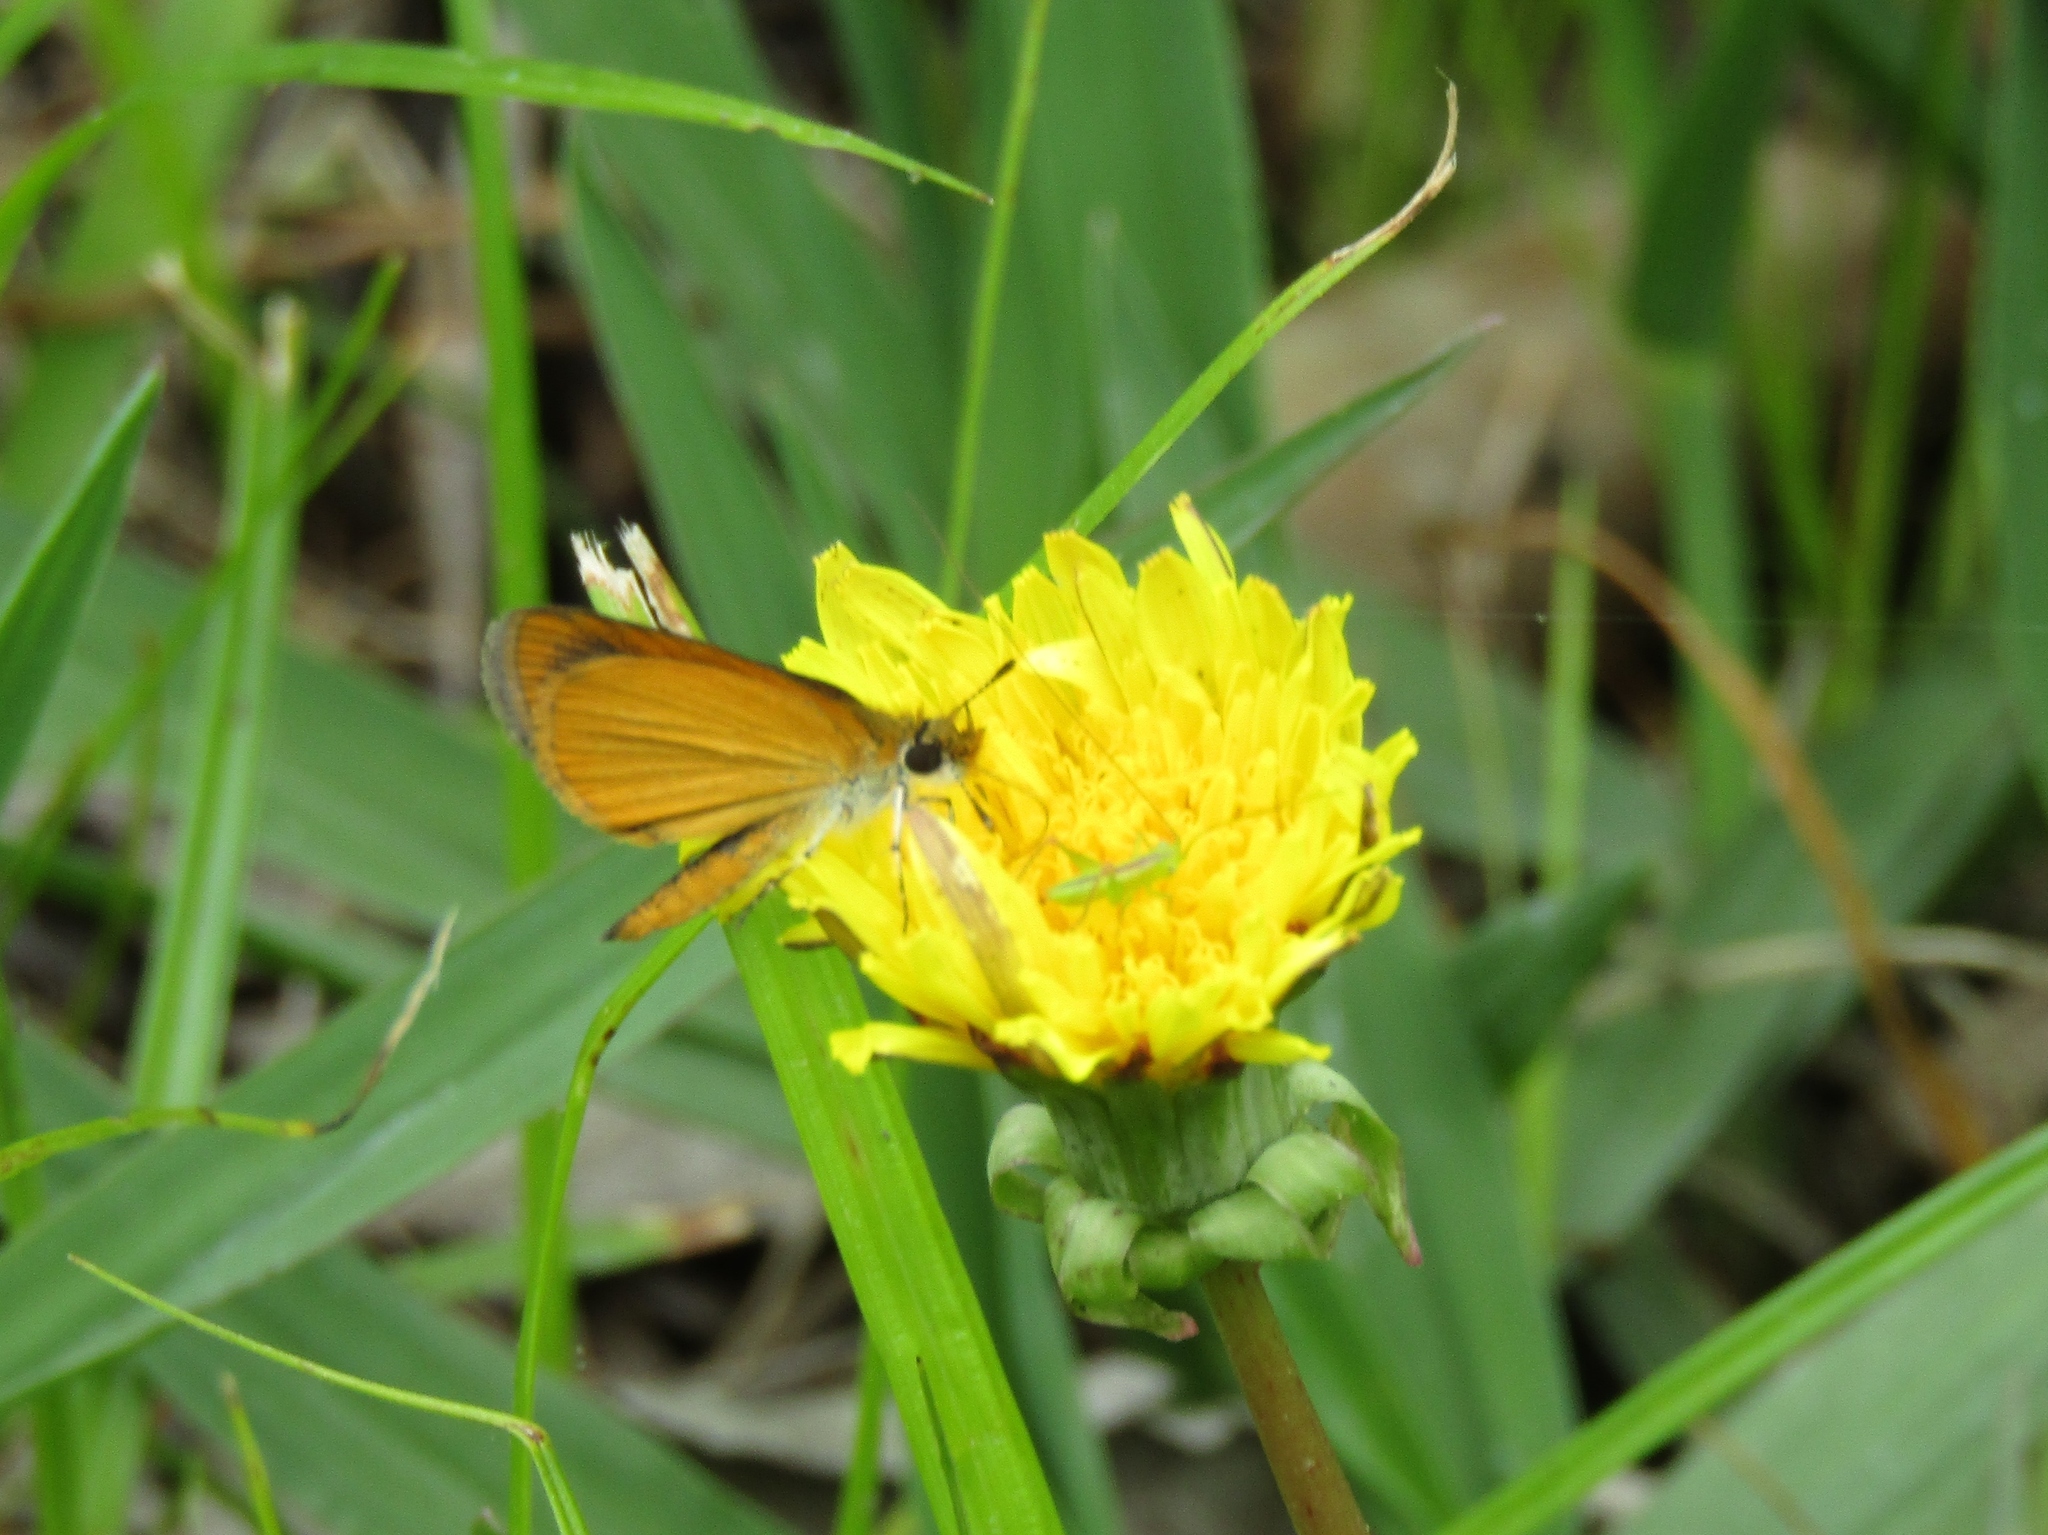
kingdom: Animalia
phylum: Arthropoda
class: Insecta
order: Lepidoptera
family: Hesperiidae
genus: Ancyloxypha
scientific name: Ancyloxypha numitor
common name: Least skipper
